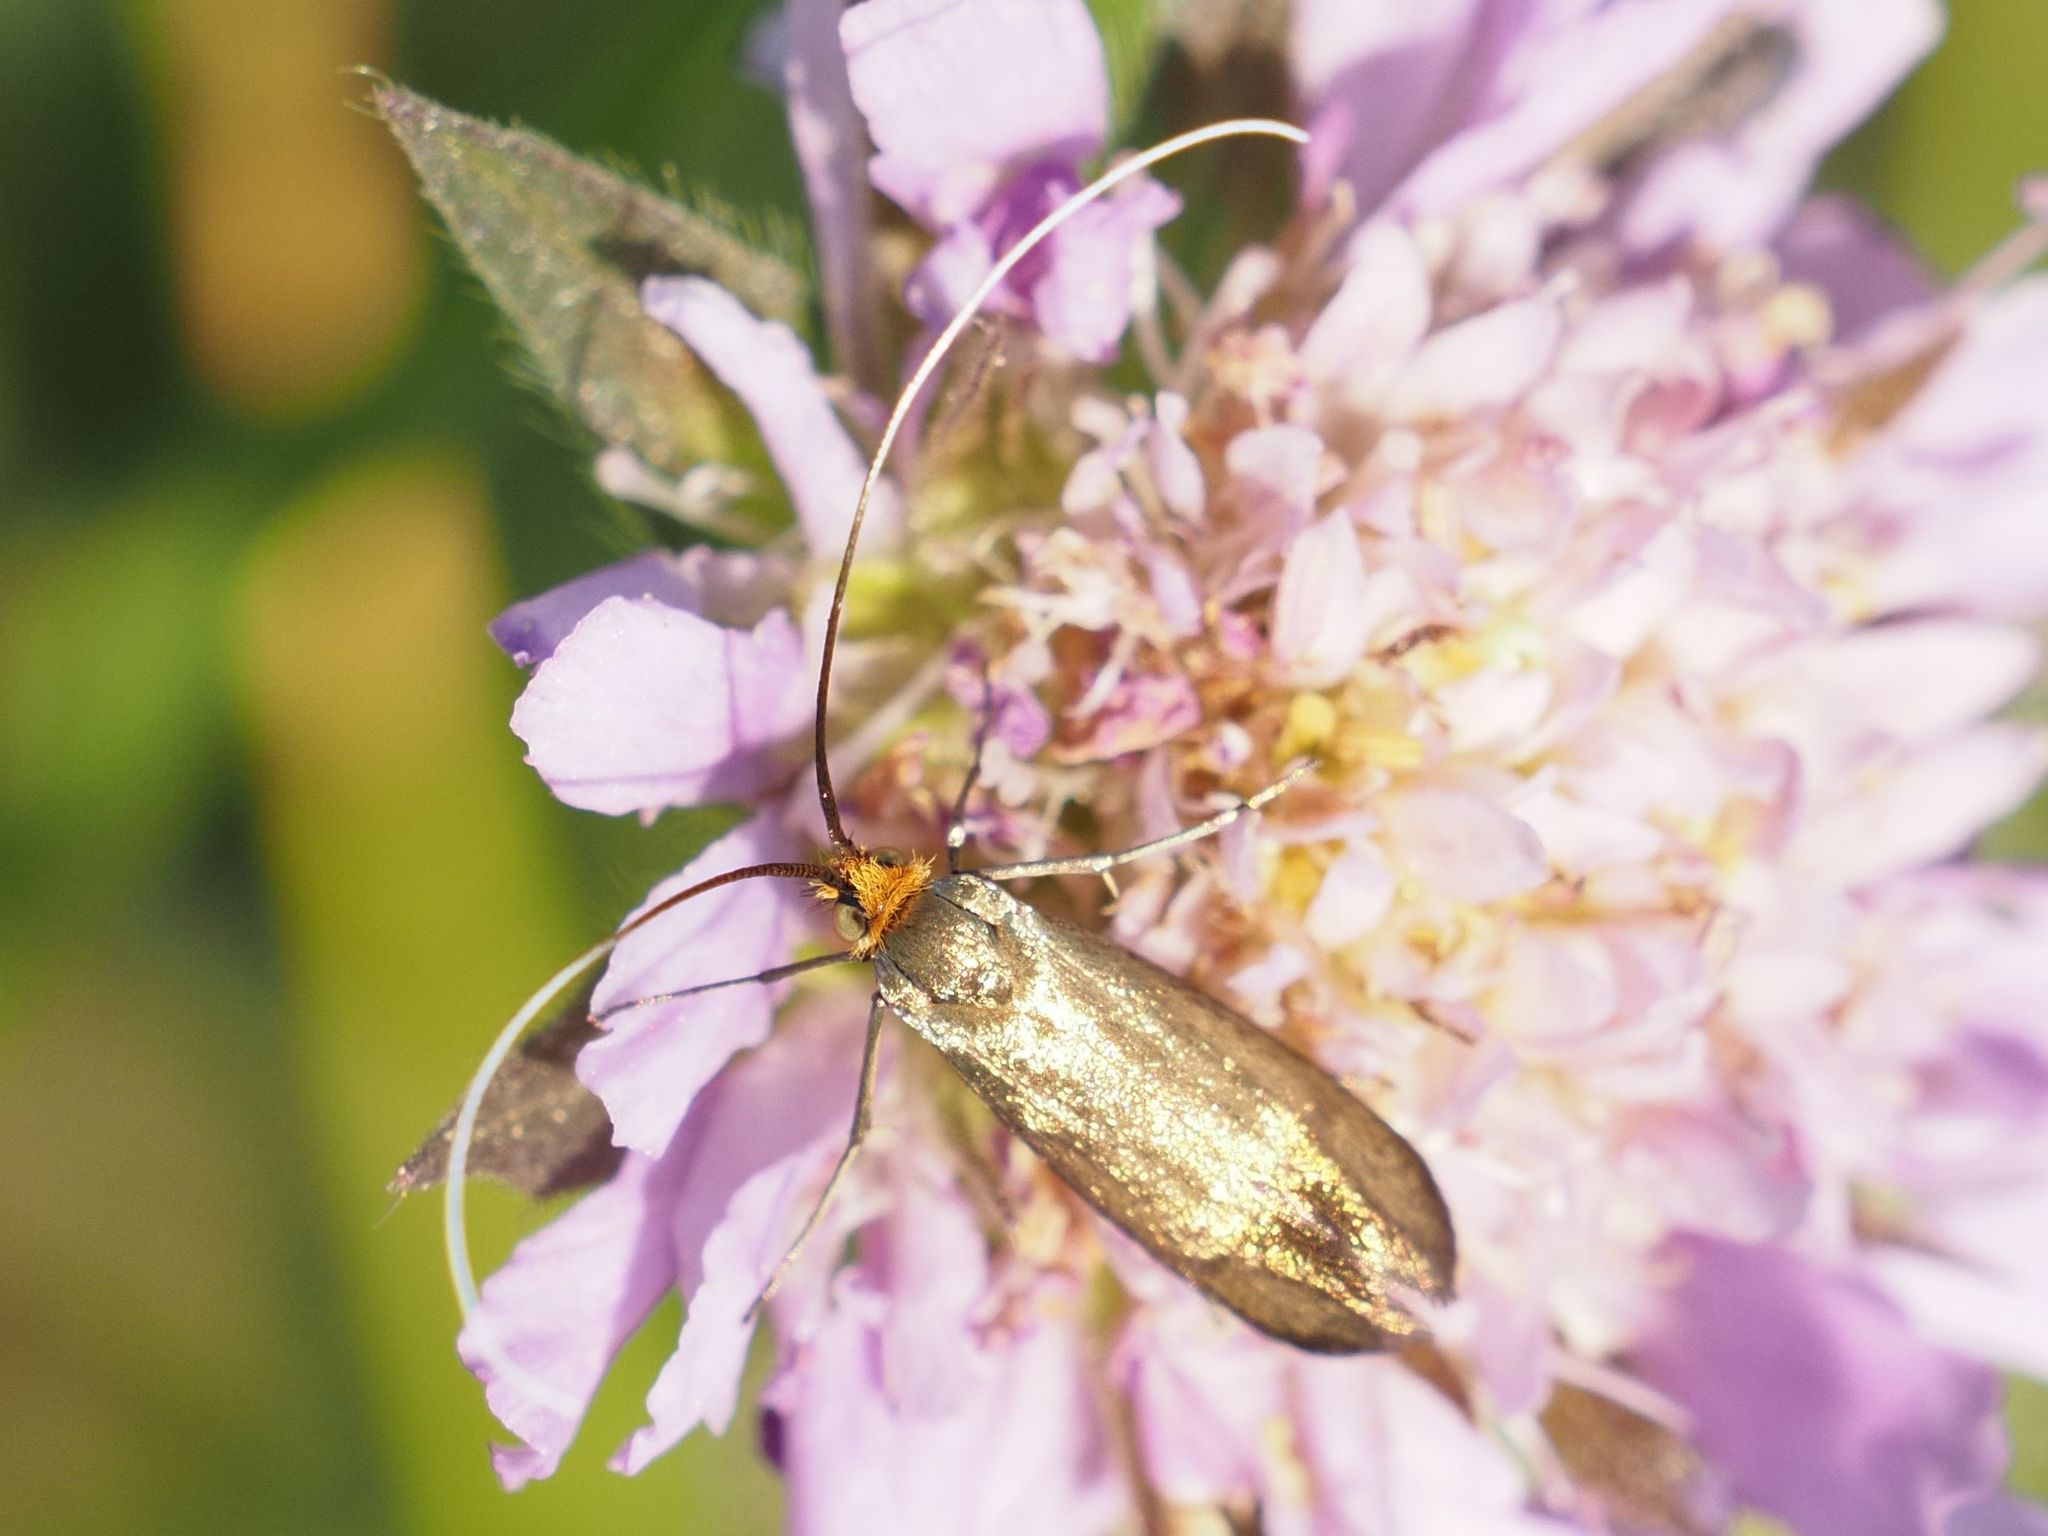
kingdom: Animalia
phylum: Arthropoda
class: Insecta
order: Lepidoptera
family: Adelidae
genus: Nemophora
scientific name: Nemophora metallica
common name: Brassy long-horn
